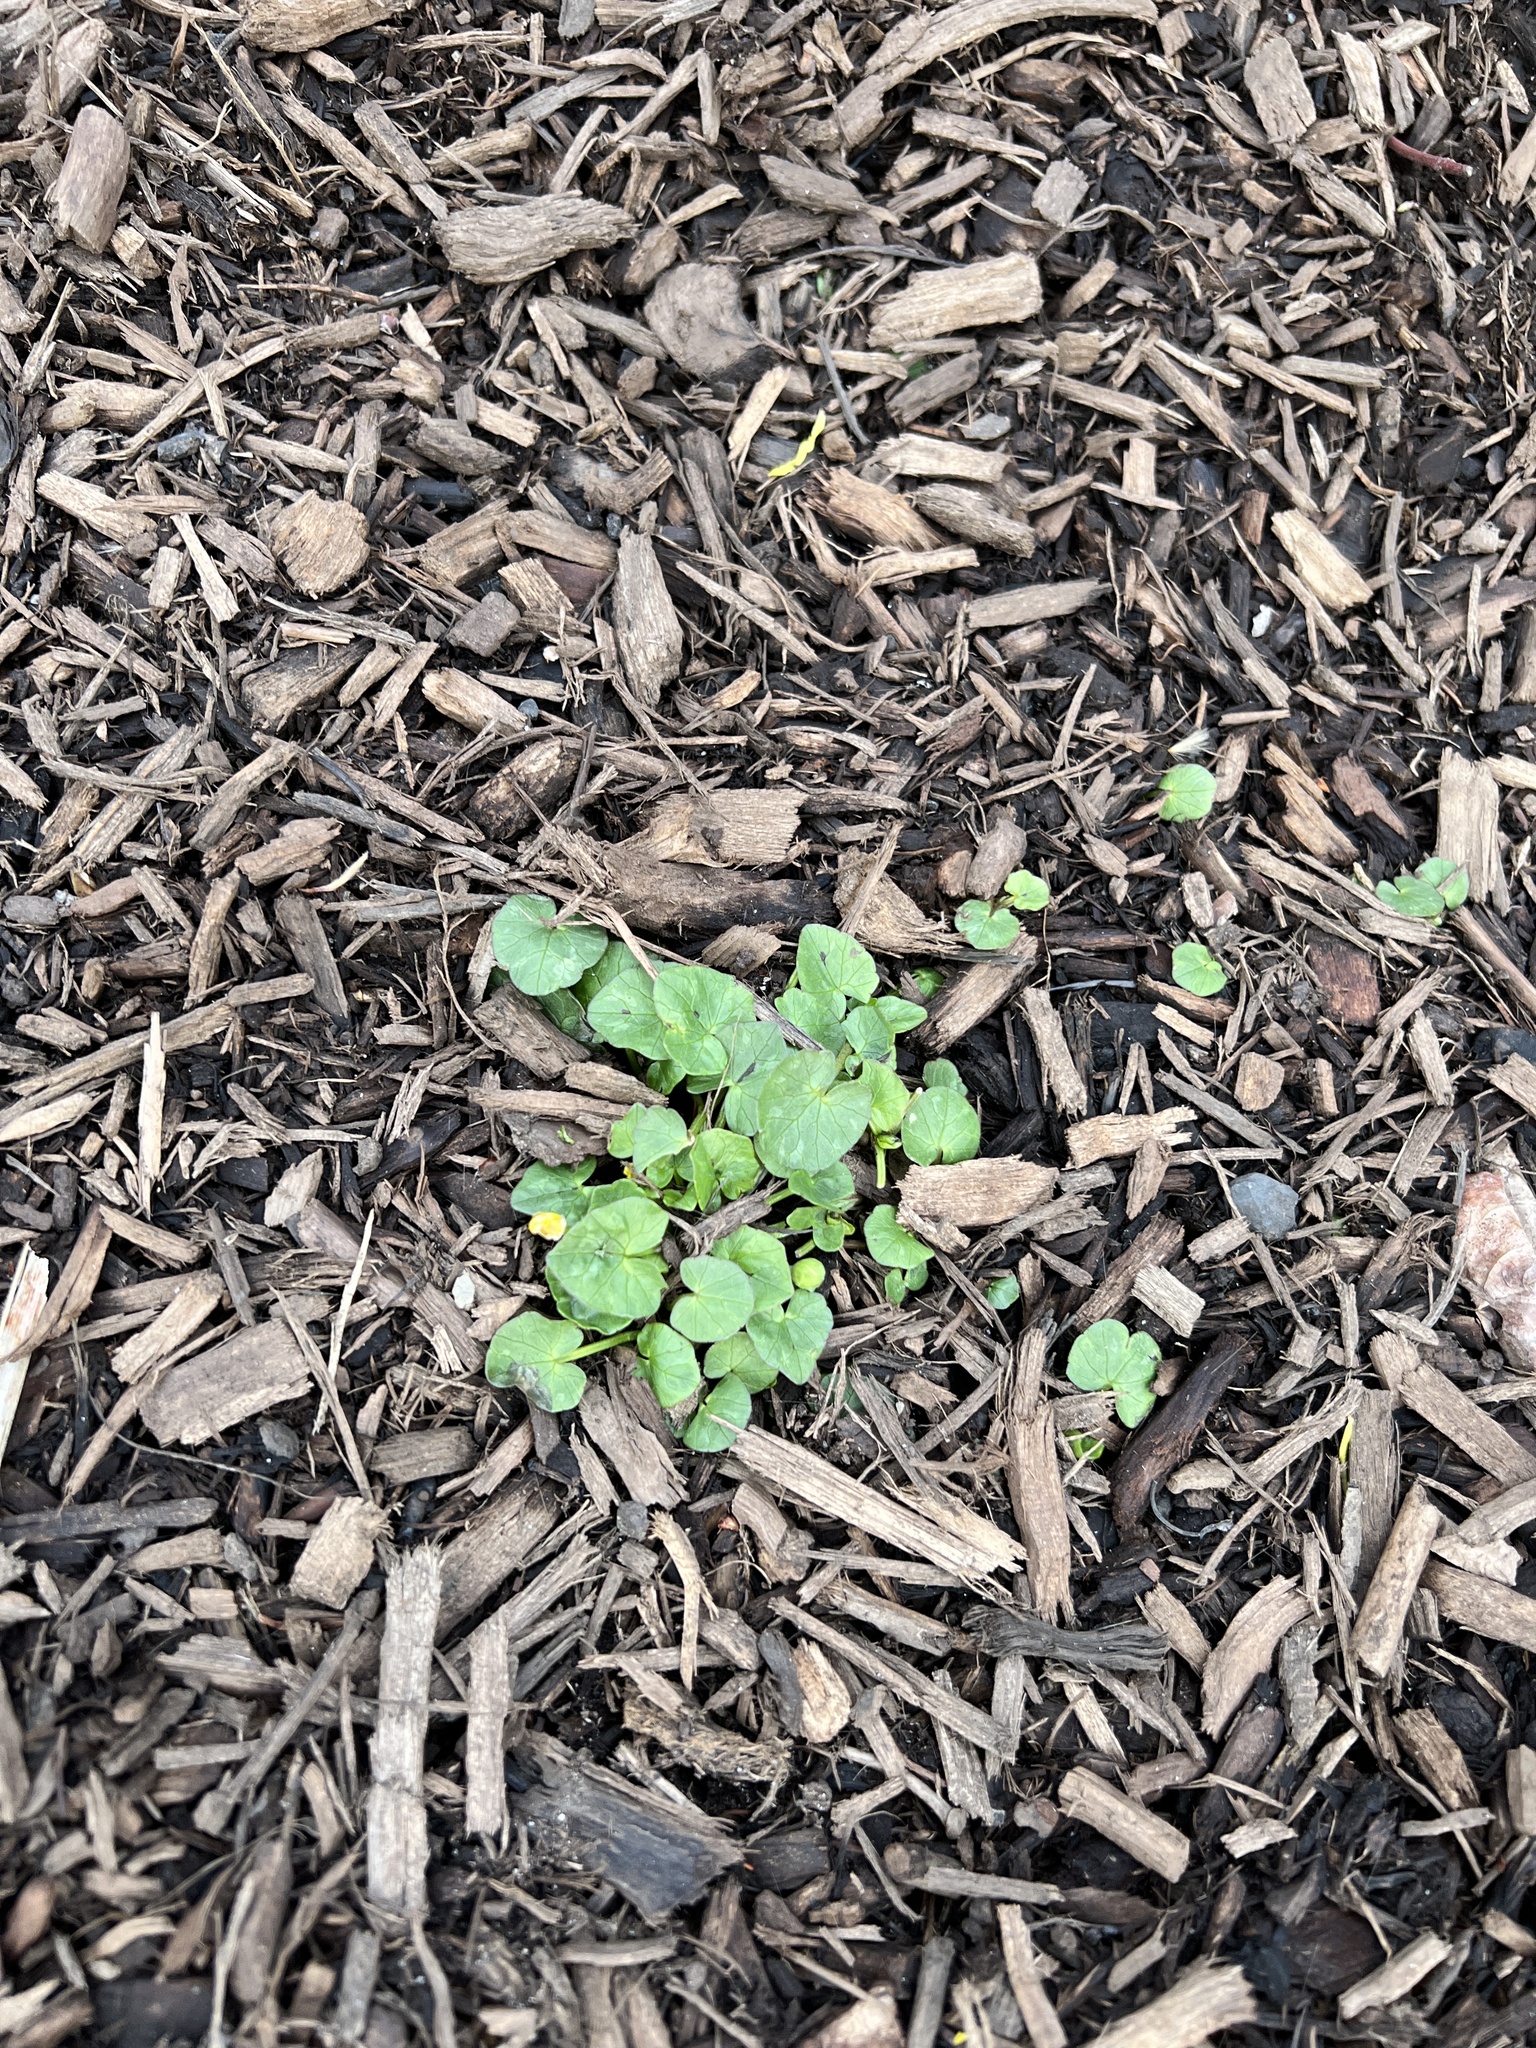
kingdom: Plantae
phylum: Tracheophyta
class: Magnoliopsida
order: Ranunculales
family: Ranunculaceae
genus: Ficaria
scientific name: Ficaria verna
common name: Lesser celandine
